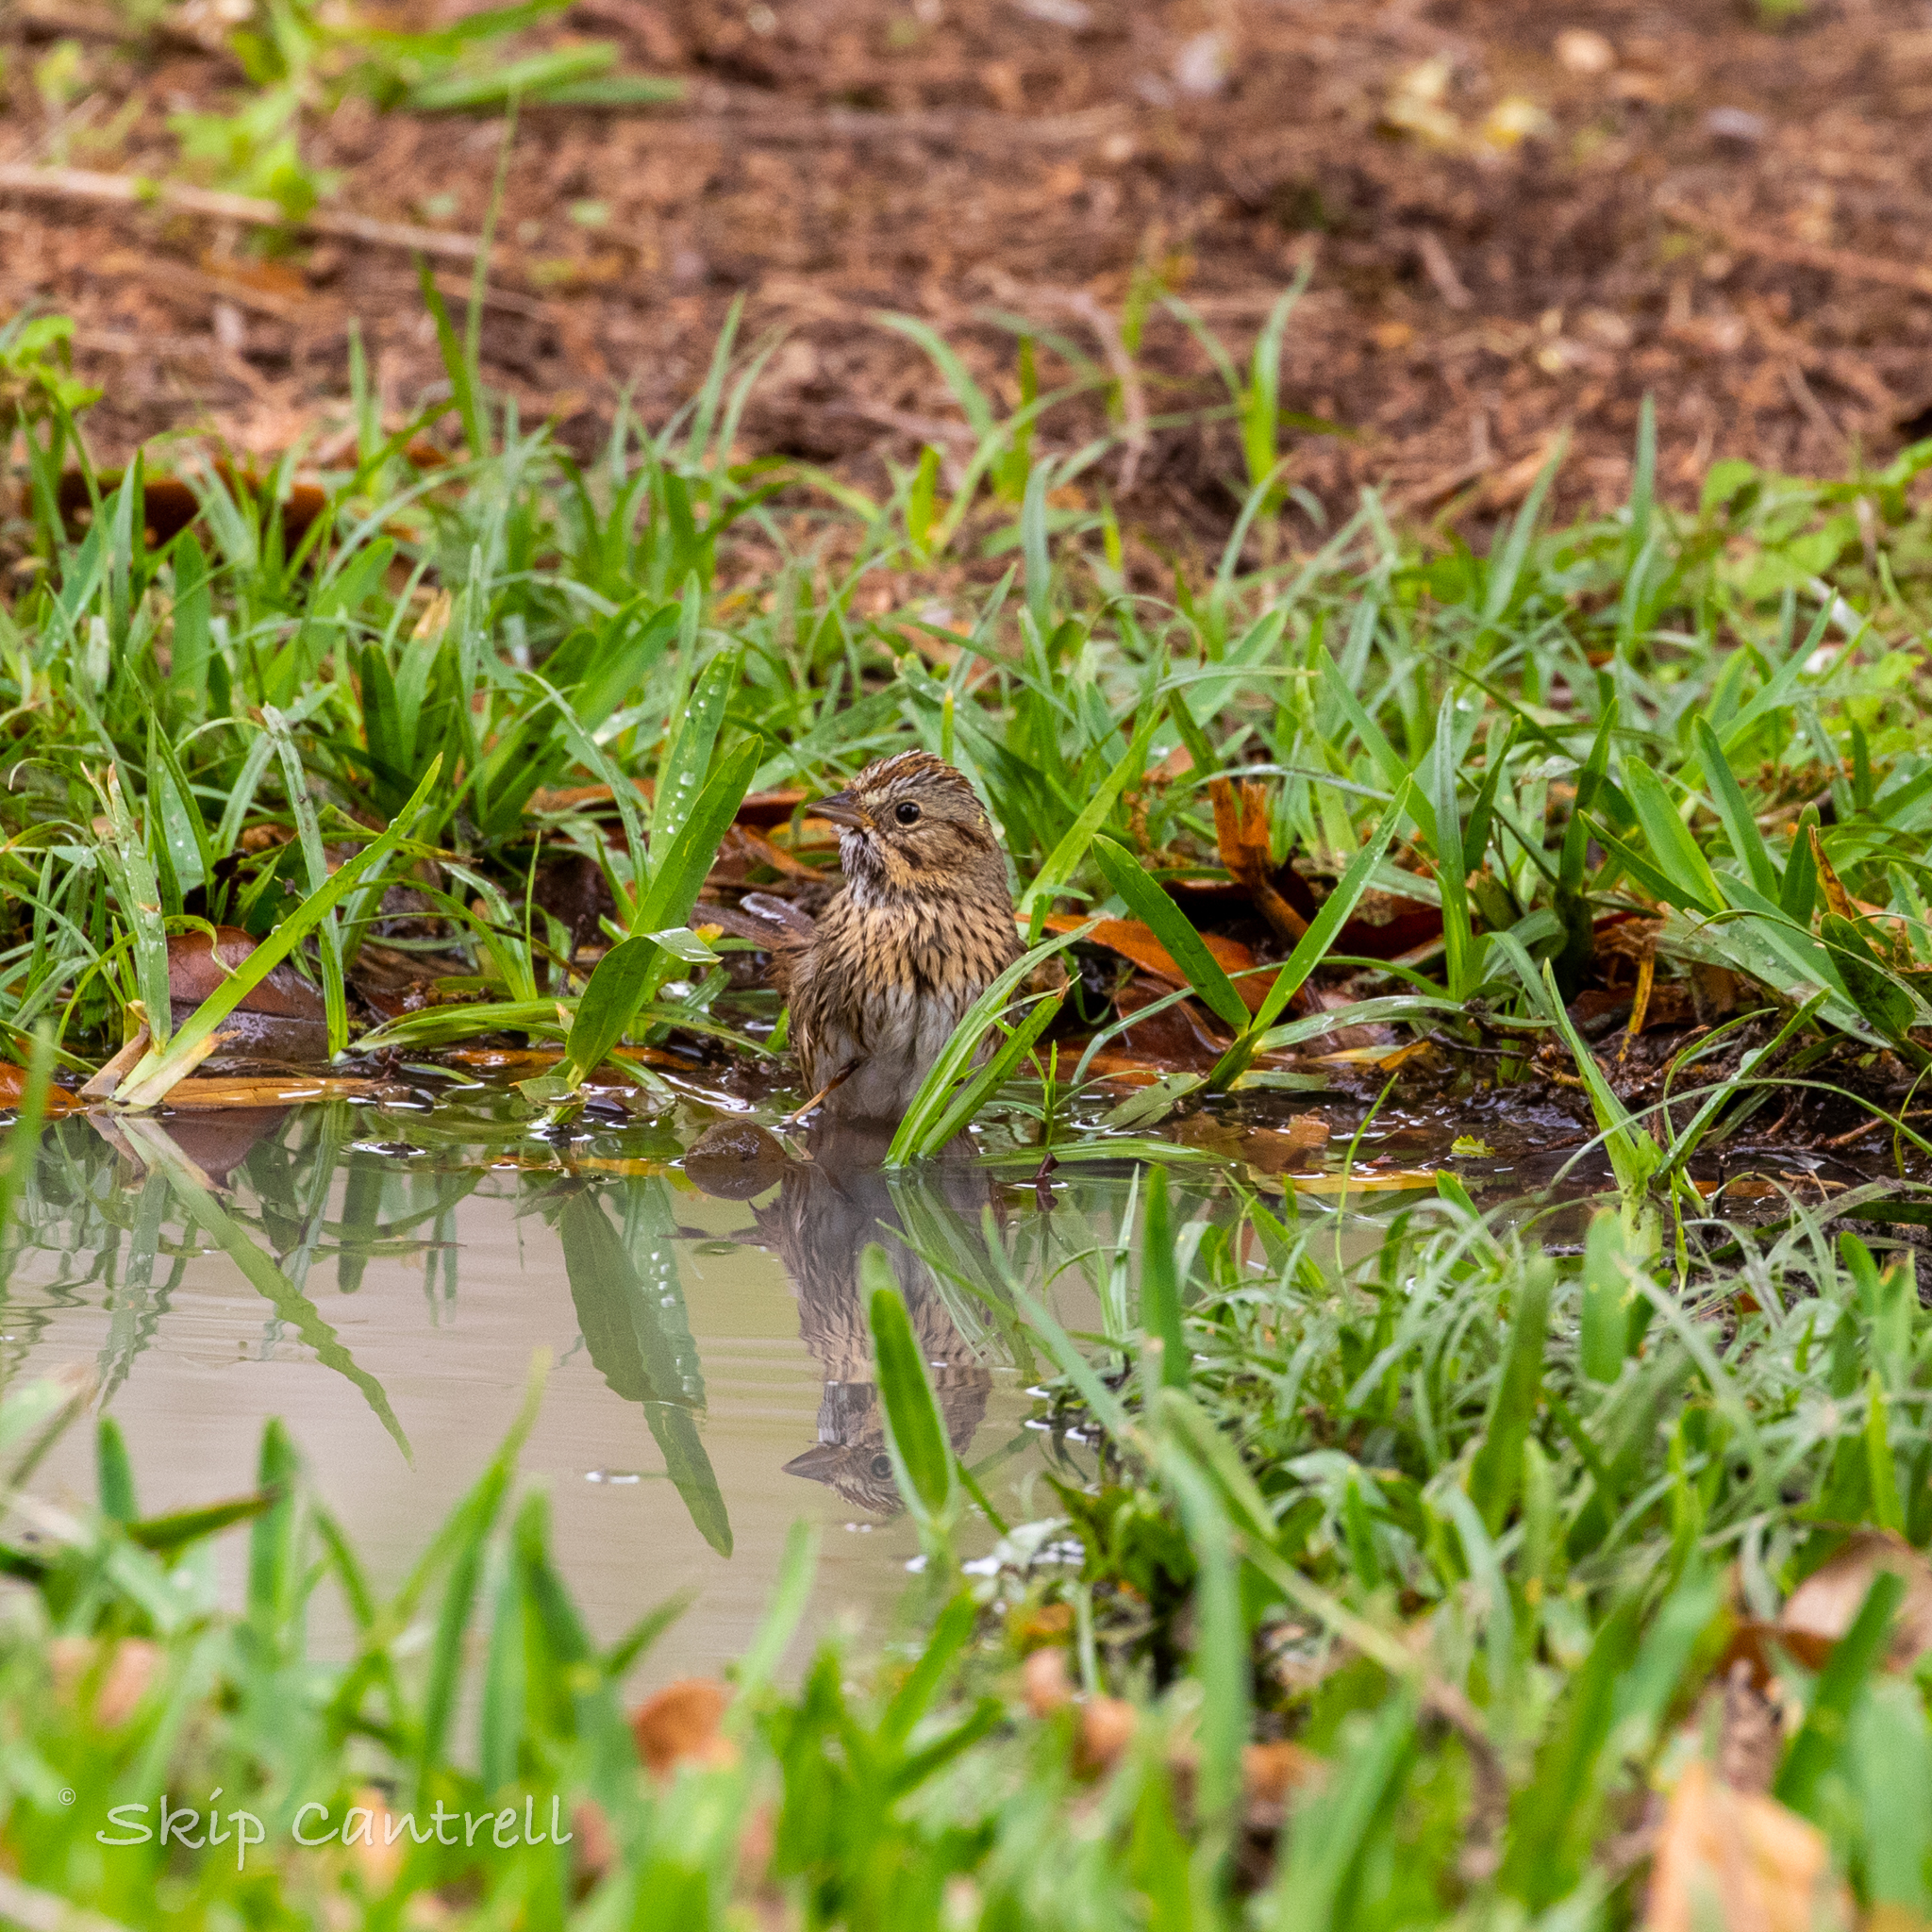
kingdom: Animalia
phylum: Chordata
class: Aves
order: Passeriformes
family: Passerellidae
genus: Melospiza
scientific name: Melospiza lincolnii
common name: Lincoln's sparrow
